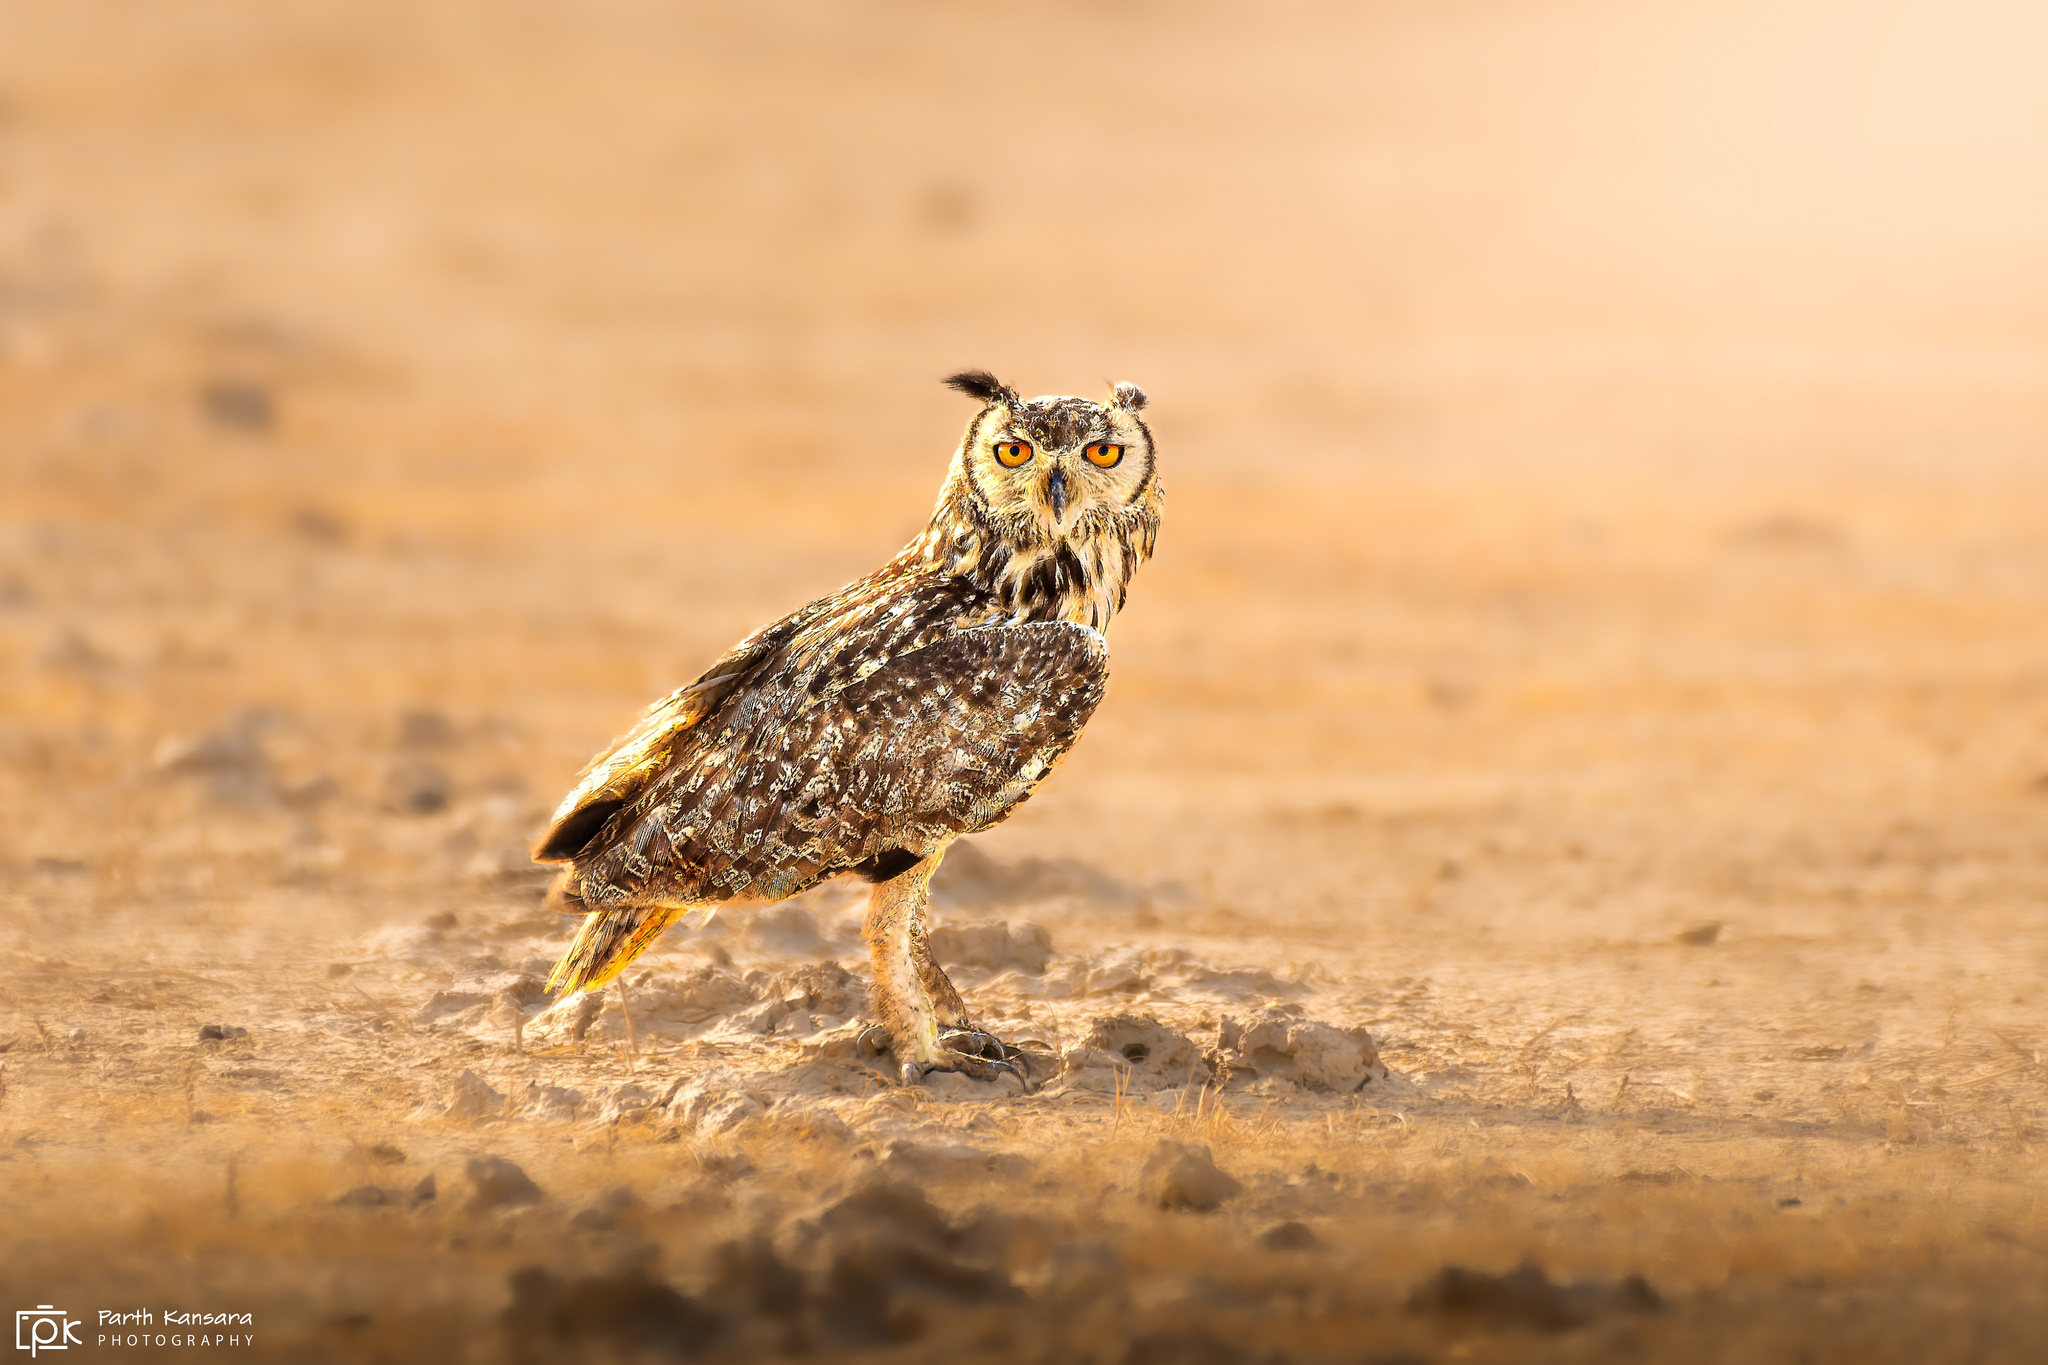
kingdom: Animalia
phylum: Chordata
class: Aves
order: Strigiformes
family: Strigidae
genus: Bubo
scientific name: Bubo bengalensis
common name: Indian eagle-owl
